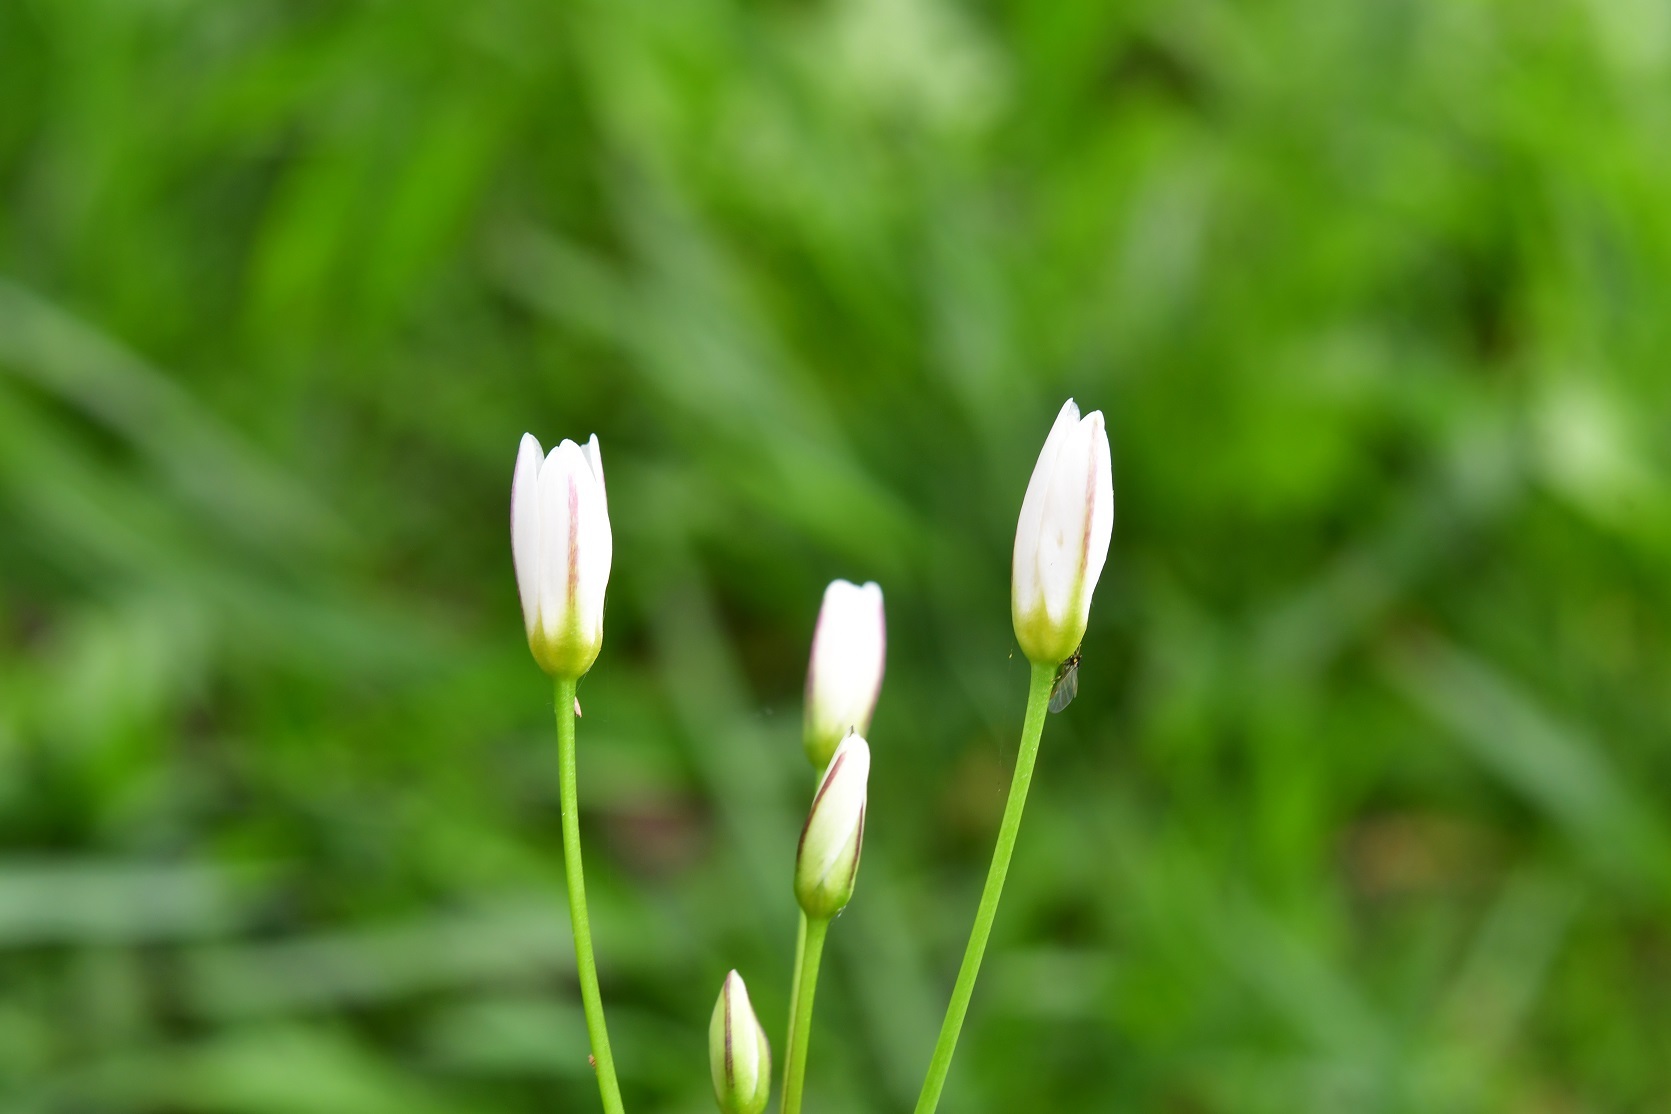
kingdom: Plantae
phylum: Tracheophyta
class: Liliopsida
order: Asparagales
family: Amaryllidaceae
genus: Nothoscordum
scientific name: Nothoscordum gracile
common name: Slender false garlic
